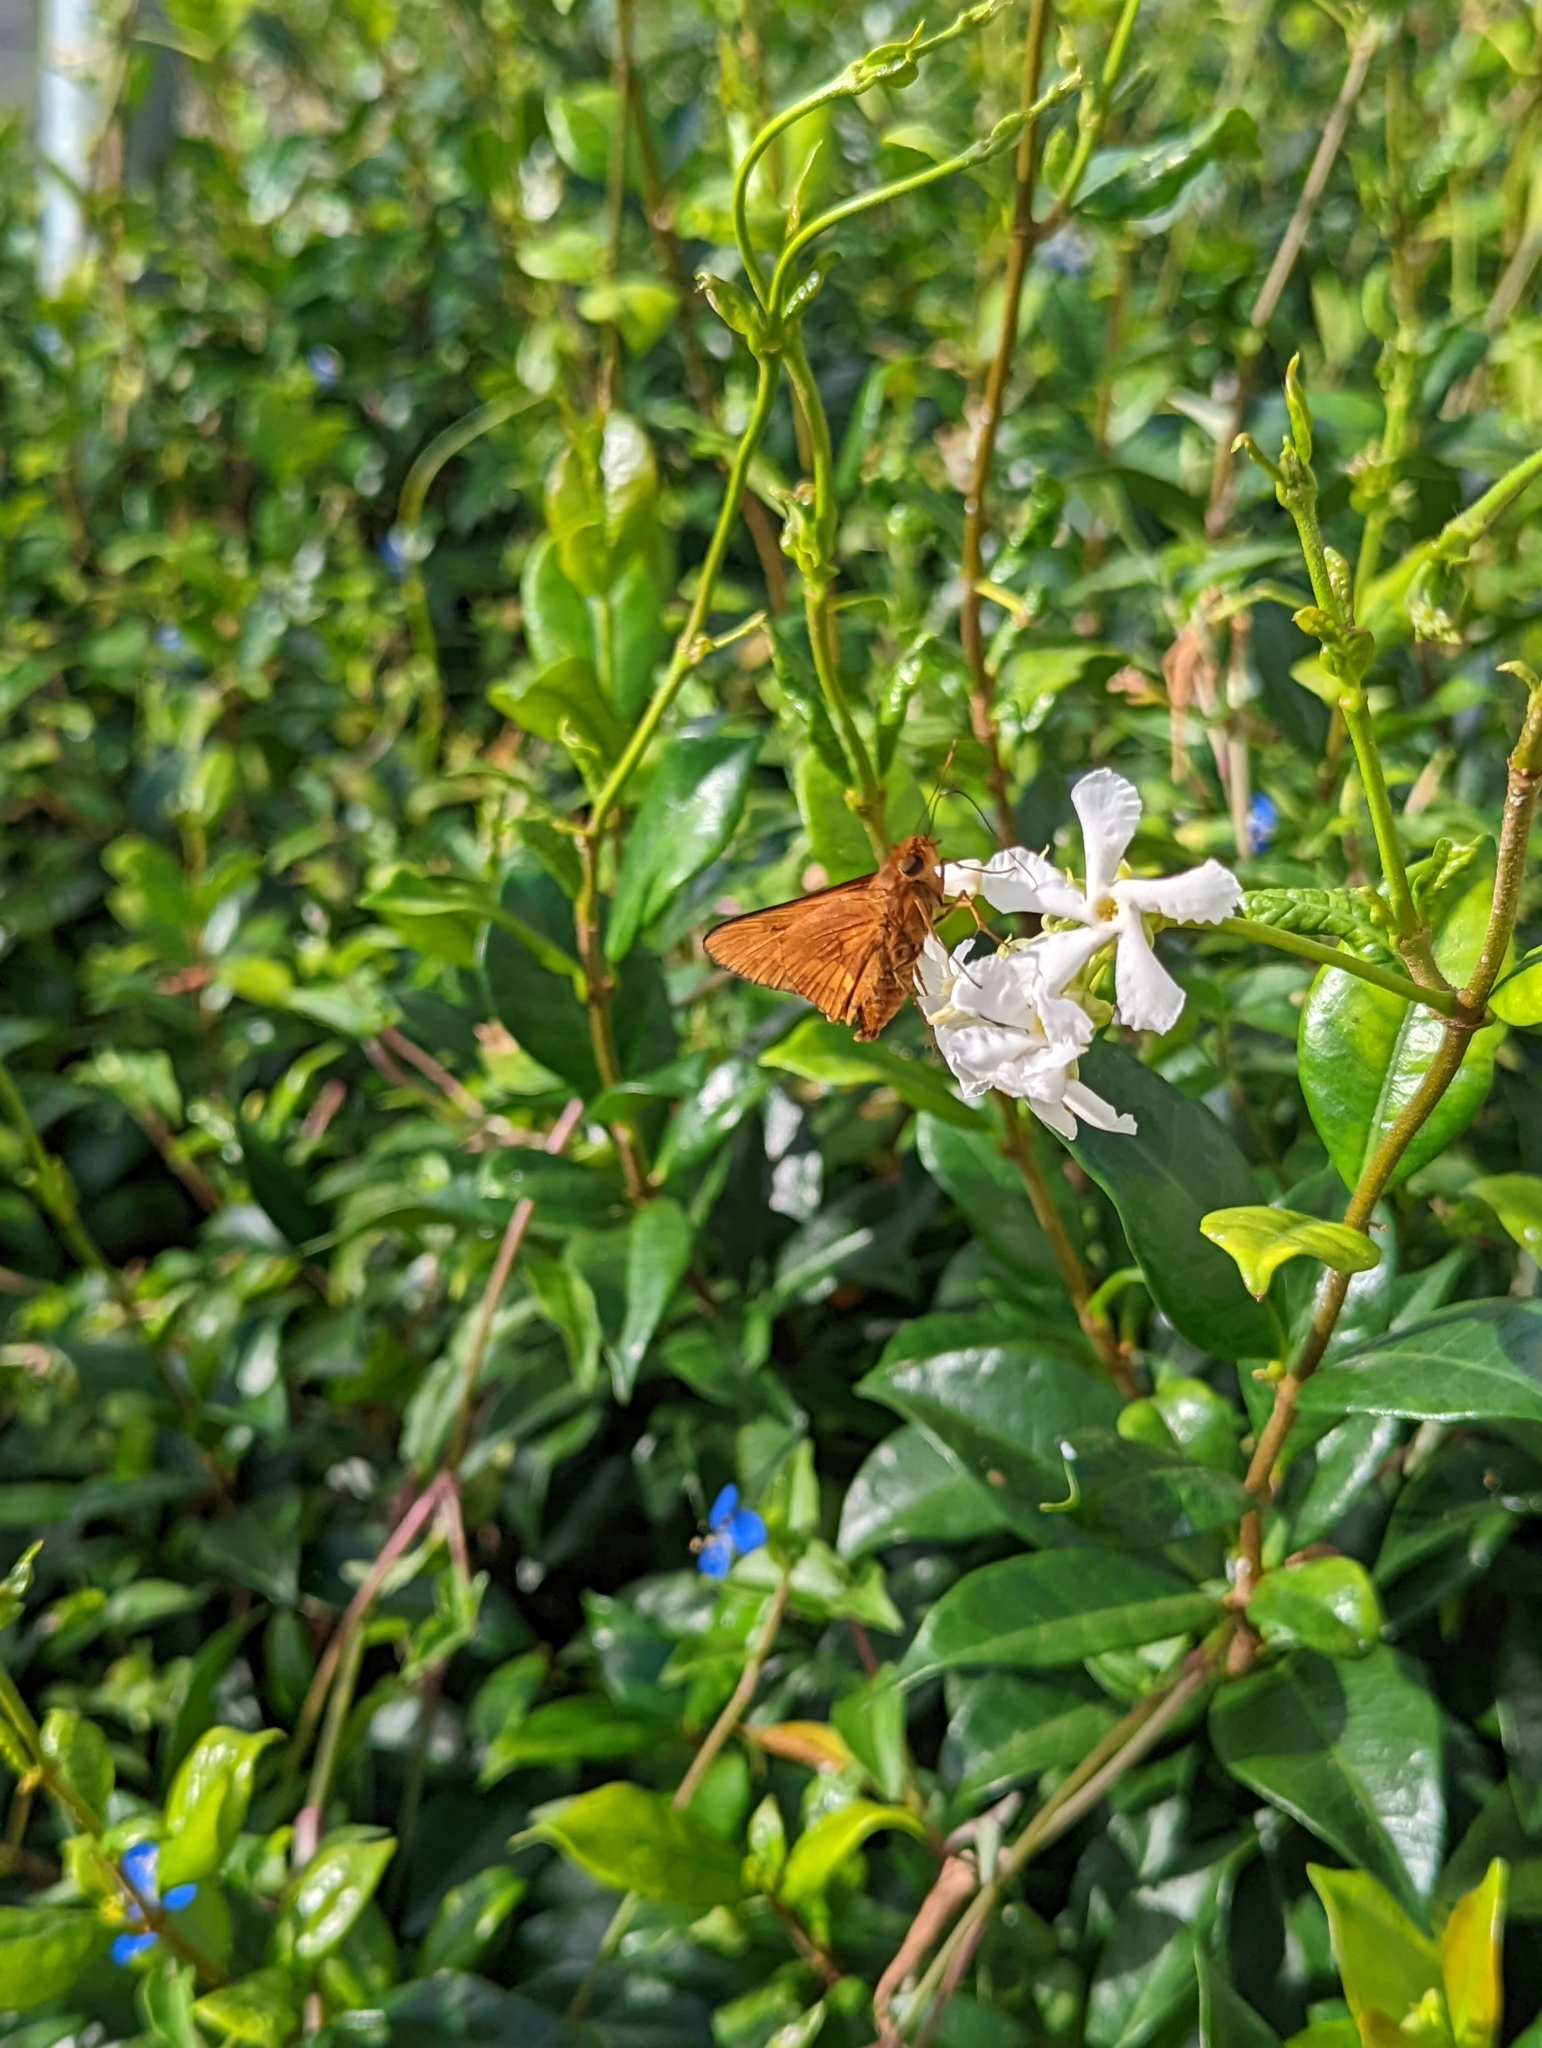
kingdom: Animalia
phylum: Arthropoda
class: Insecta
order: Lepidoptera
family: Hesperiidae
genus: Cephrenes
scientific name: Cephrenes augiades
